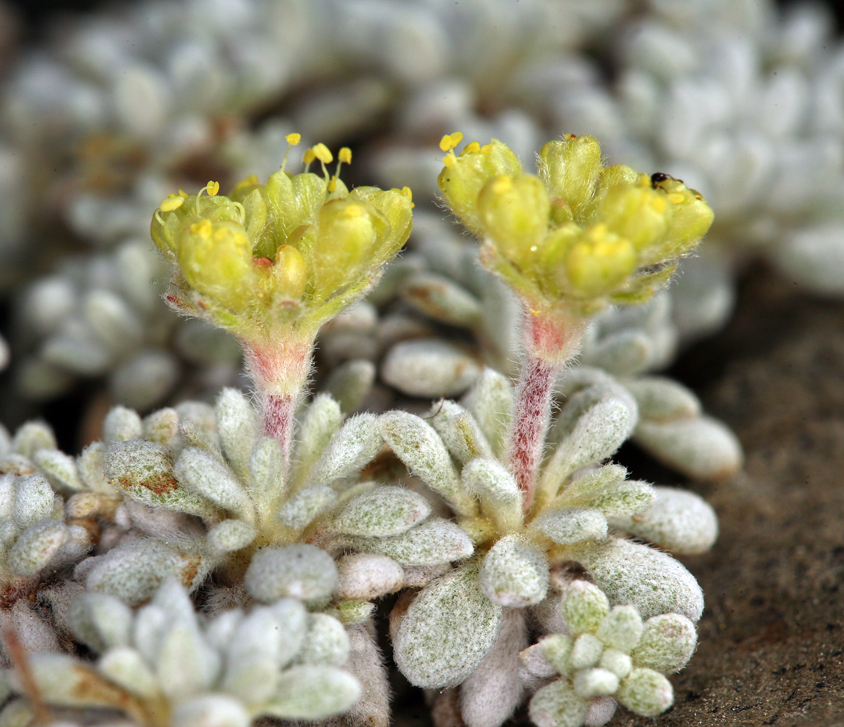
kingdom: Plantae
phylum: Tracheophyta
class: Magnoliopsida
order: Caryophyllales
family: Polygonaceae
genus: Eriogonum
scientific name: Eriogonum caespitosum
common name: Matted wild buckwheat
